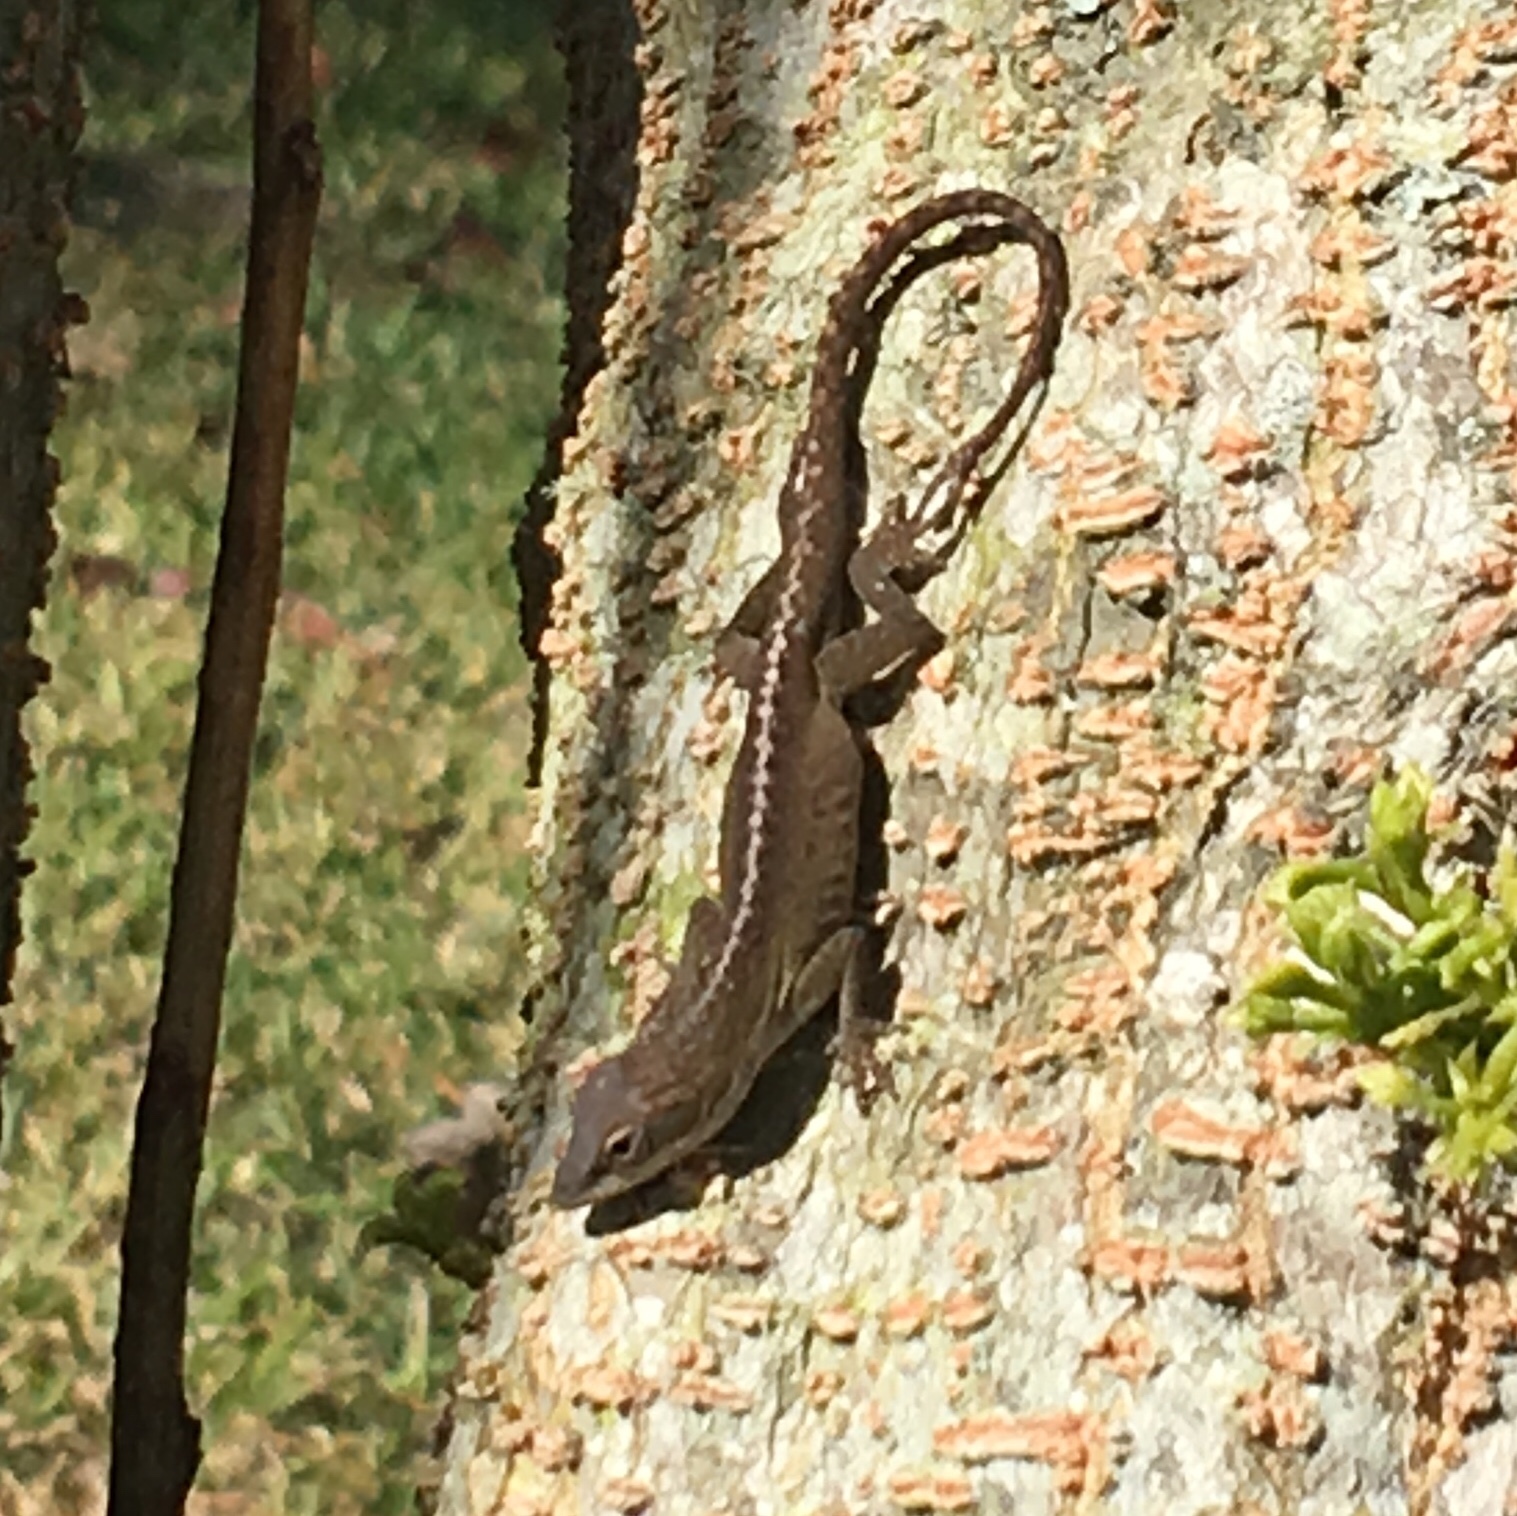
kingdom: Animalia
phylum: Chordata
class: Squamata
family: Dactyloidae
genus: Anolis
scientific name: Anolis carolinensis
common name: Green anole
